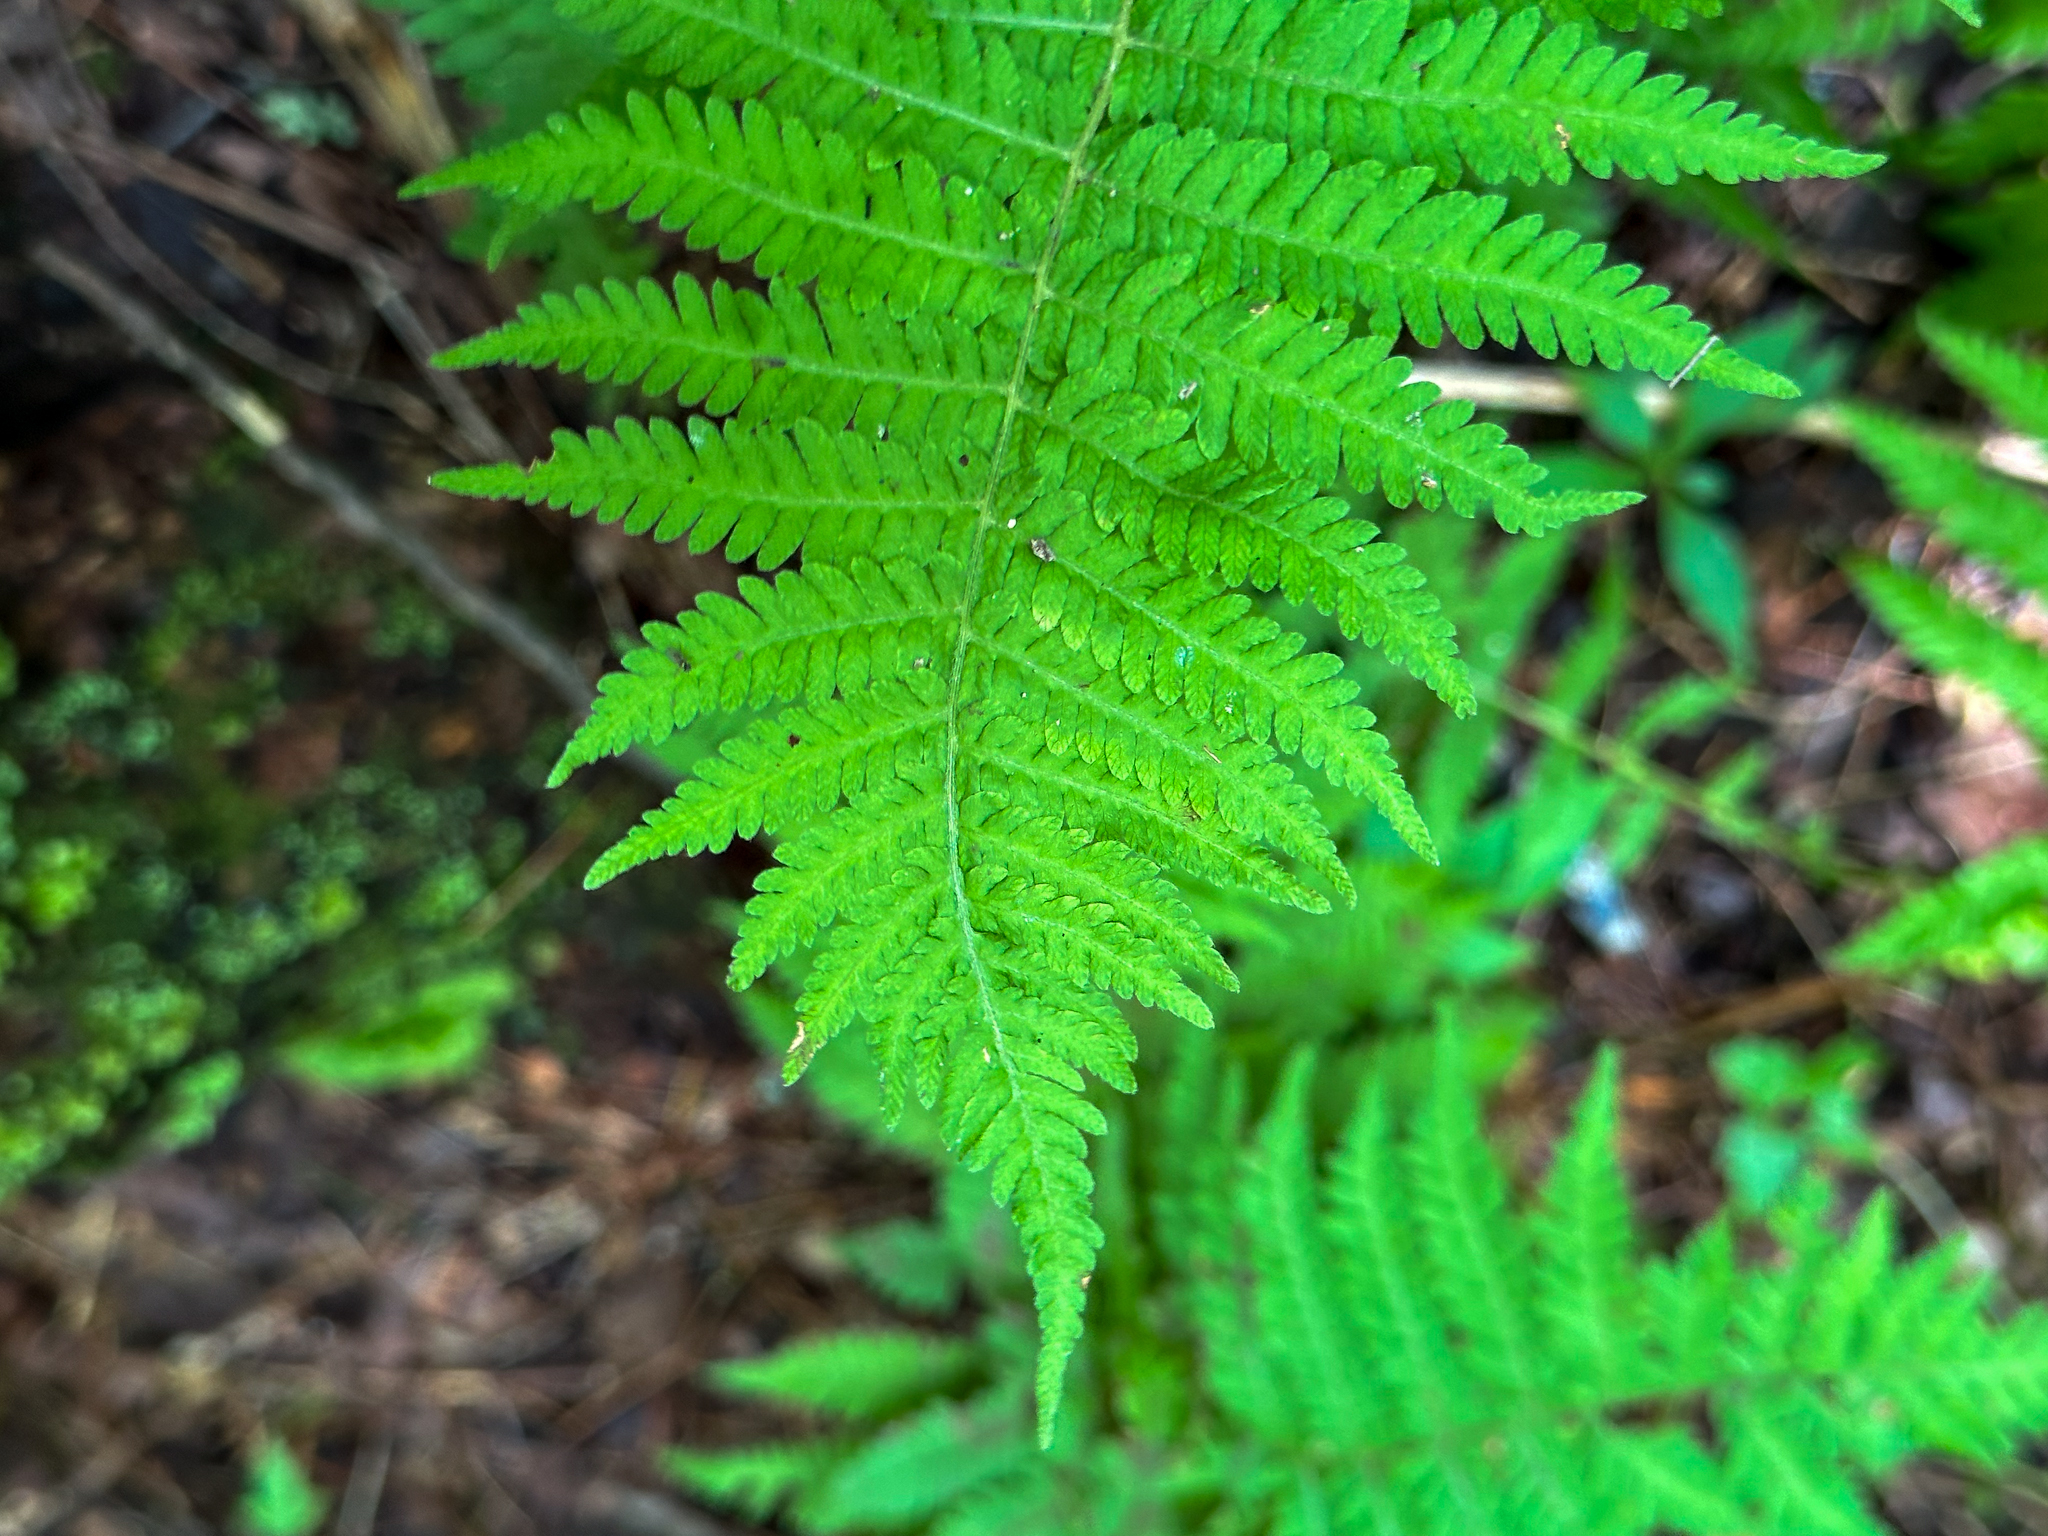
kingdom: Plantae
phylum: Tracheophyta
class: Polypodiopsida
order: Polypodiales
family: Thelypteridaceae
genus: Amauropelta
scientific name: Amauropelta noveboracensis
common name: New york fern
